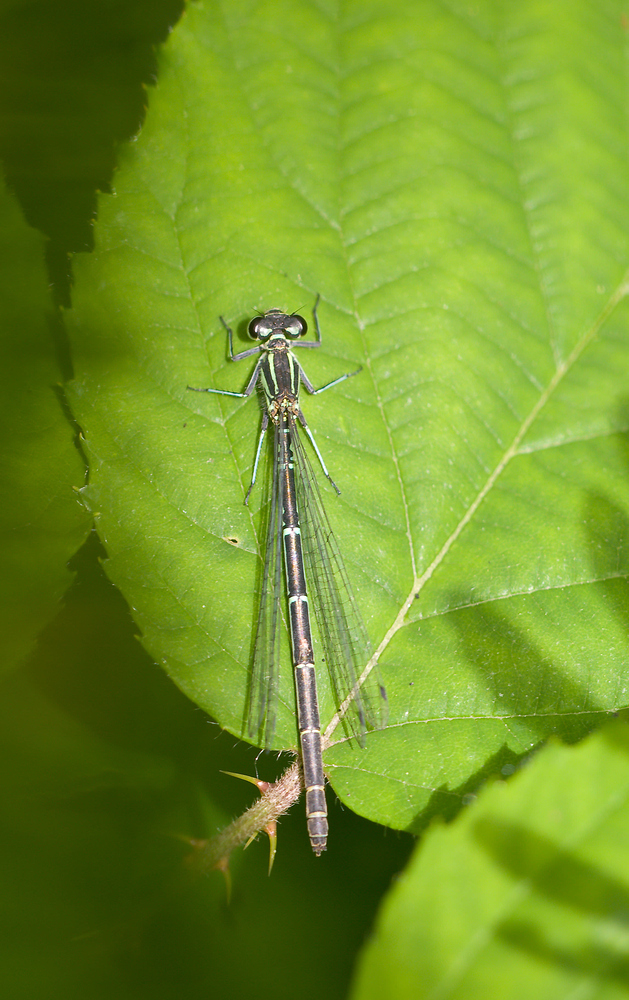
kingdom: Animalia
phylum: Arthropoda
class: Insecta
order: Odonata
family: Coenagrionidae
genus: Coenagrion
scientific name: Coenagrion puella
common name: Azure damselfly
